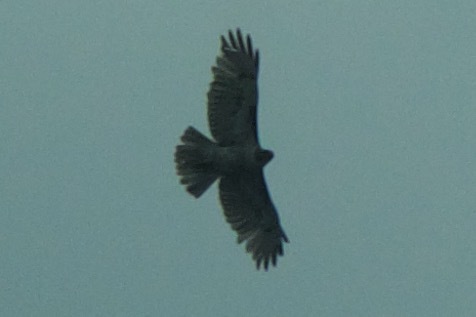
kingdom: Animalia
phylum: Chordata
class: Aves
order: Accipitriformes
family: Accipitridae
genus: Buteo
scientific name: Buteo jamaicensis
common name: Red-tailed hawk
